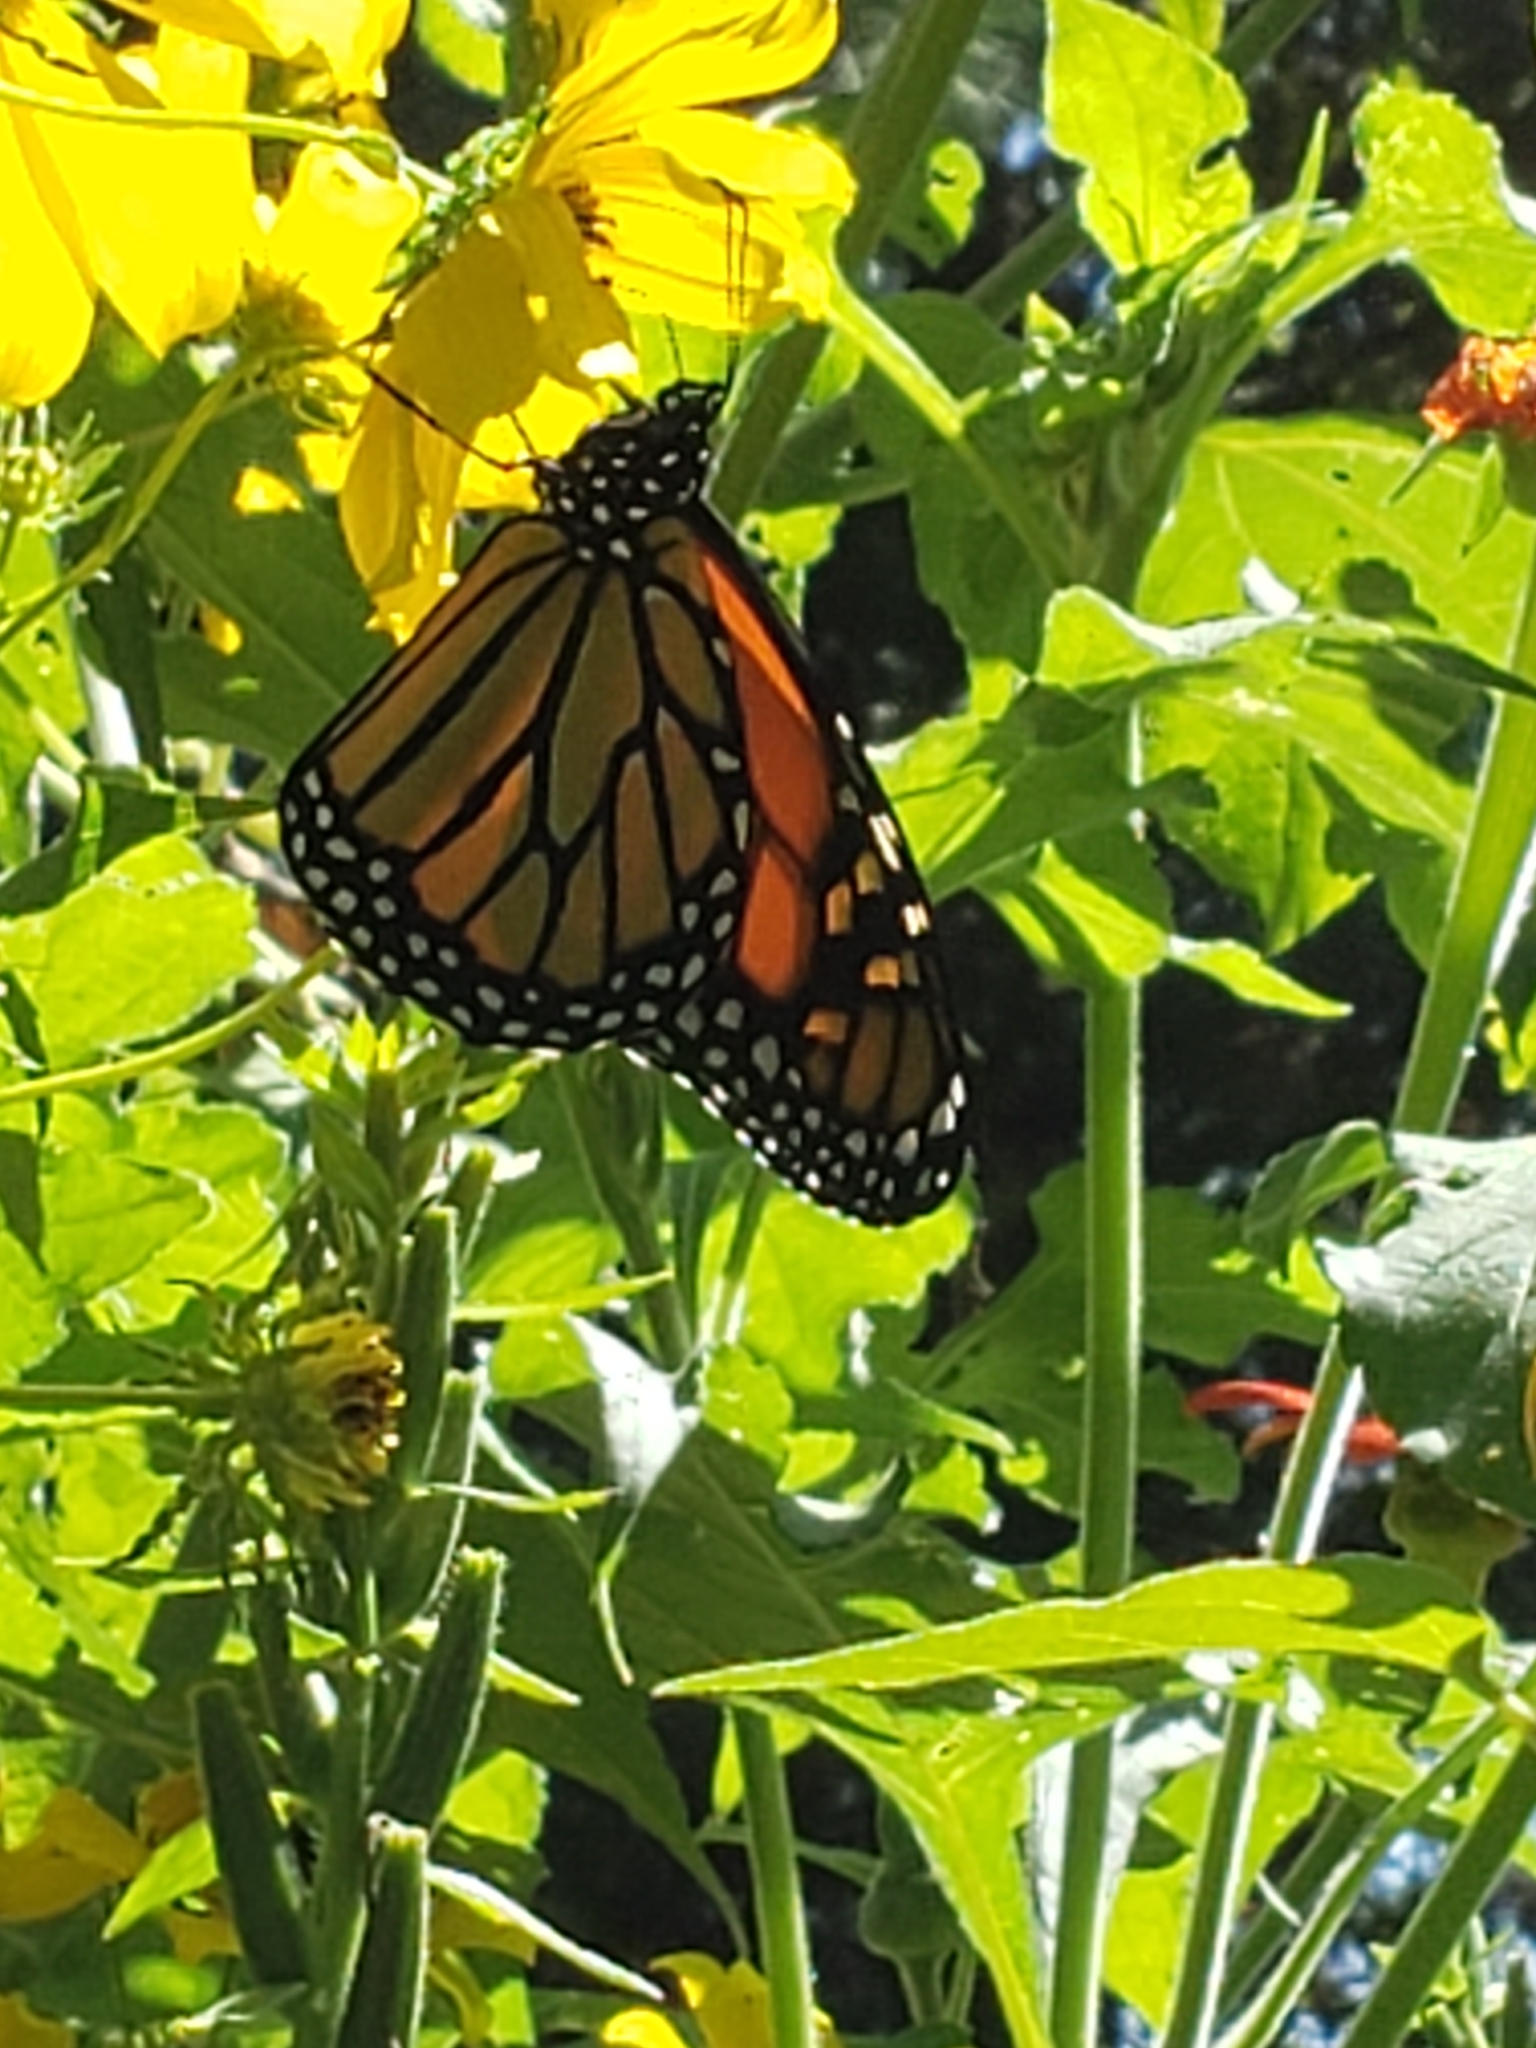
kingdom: Animalia
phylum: Arthropoda
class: Insecta
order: Lepidoptera
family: Nymphalidae
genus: Danaus
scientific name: Danaus plexippus
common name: Monarch
